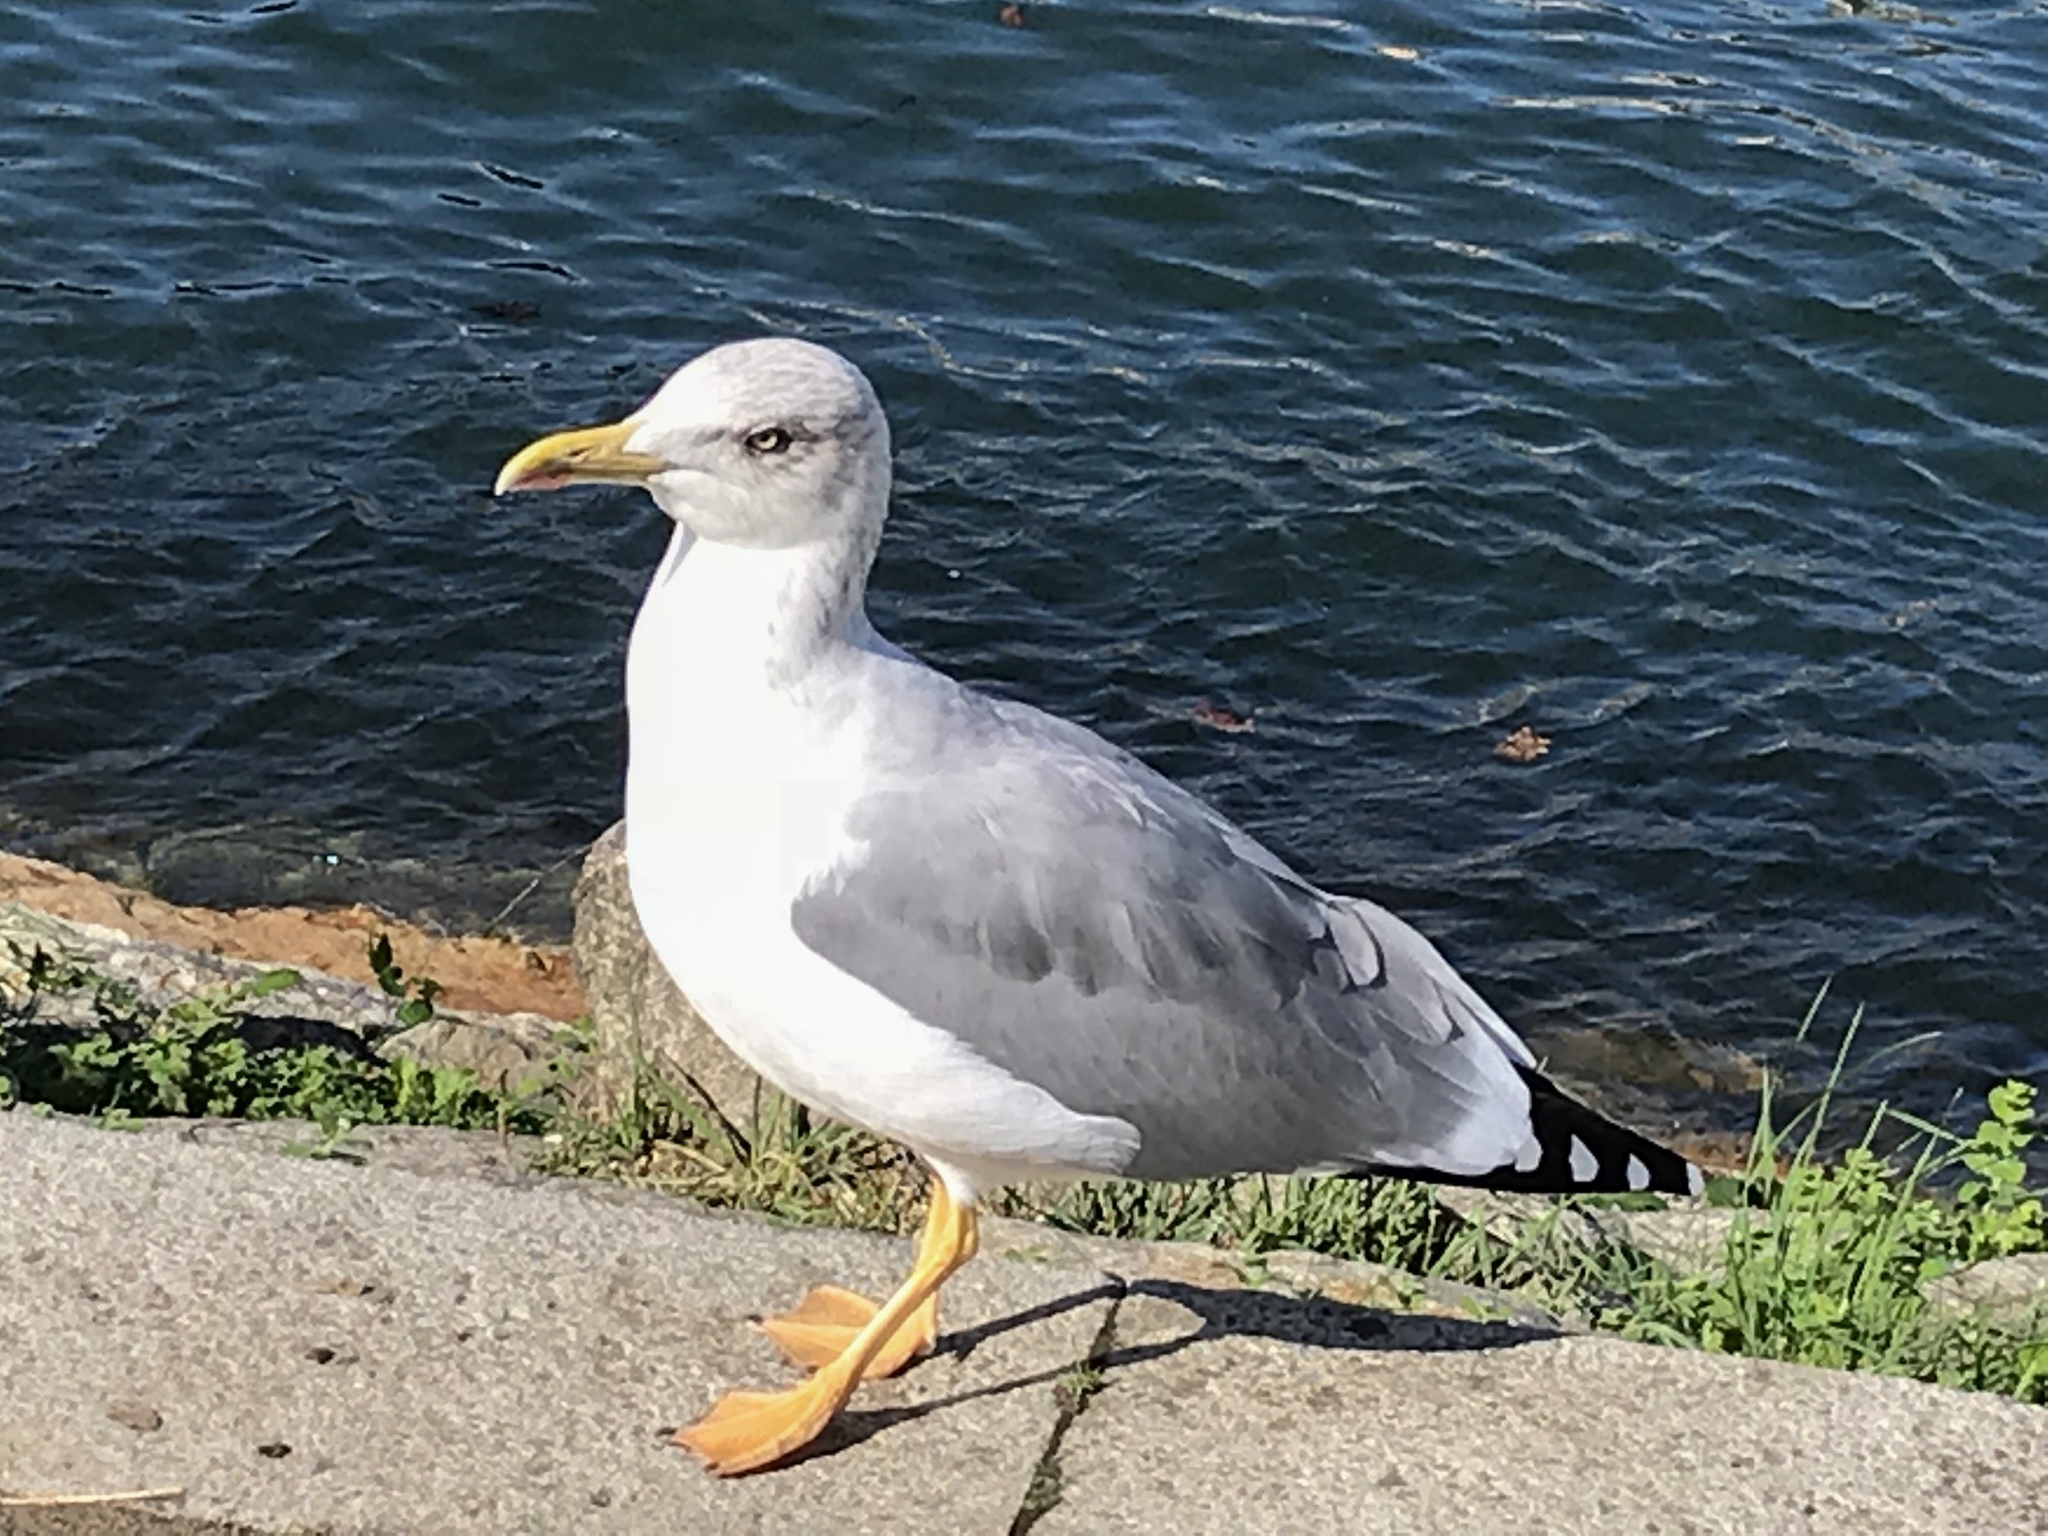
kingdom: Animalia
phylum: Chordata
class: Aves
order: Charadriiformes
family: Laridae
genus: Larus
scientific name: Larus michahellis
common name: Yellow-legged gull
